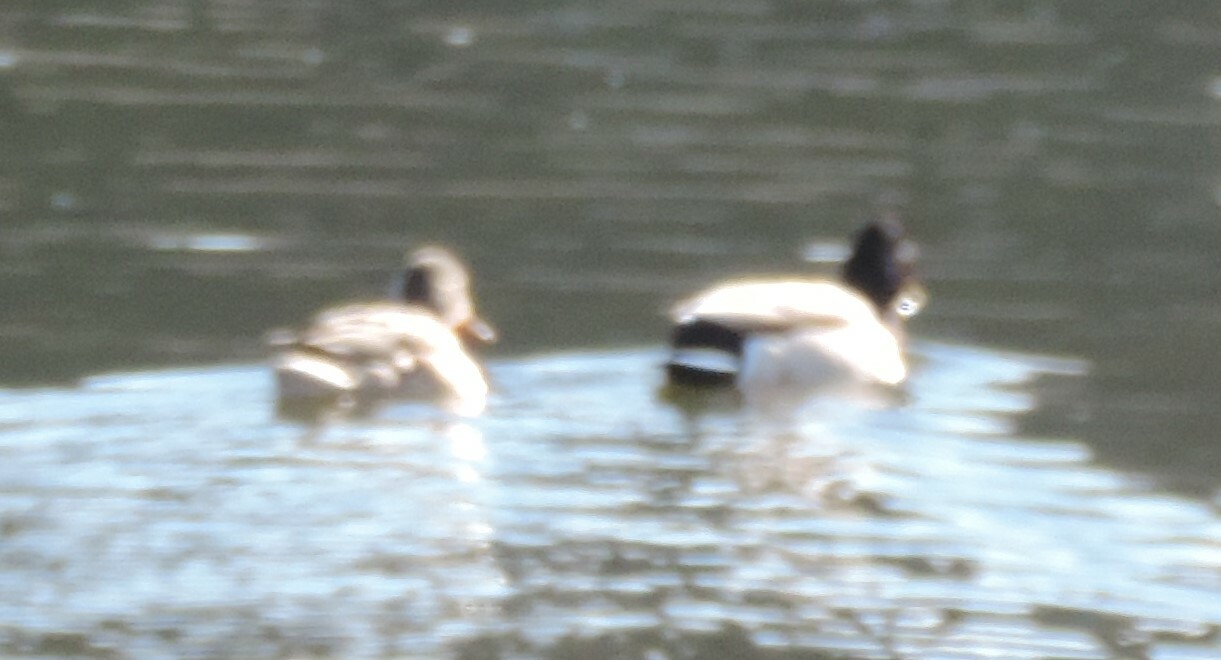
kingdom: Animalia
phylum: Chordata
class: Aves
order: Anseriformes
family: Anatidae
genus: Anas
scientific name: Anas platyrhynchos
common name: Mallard
